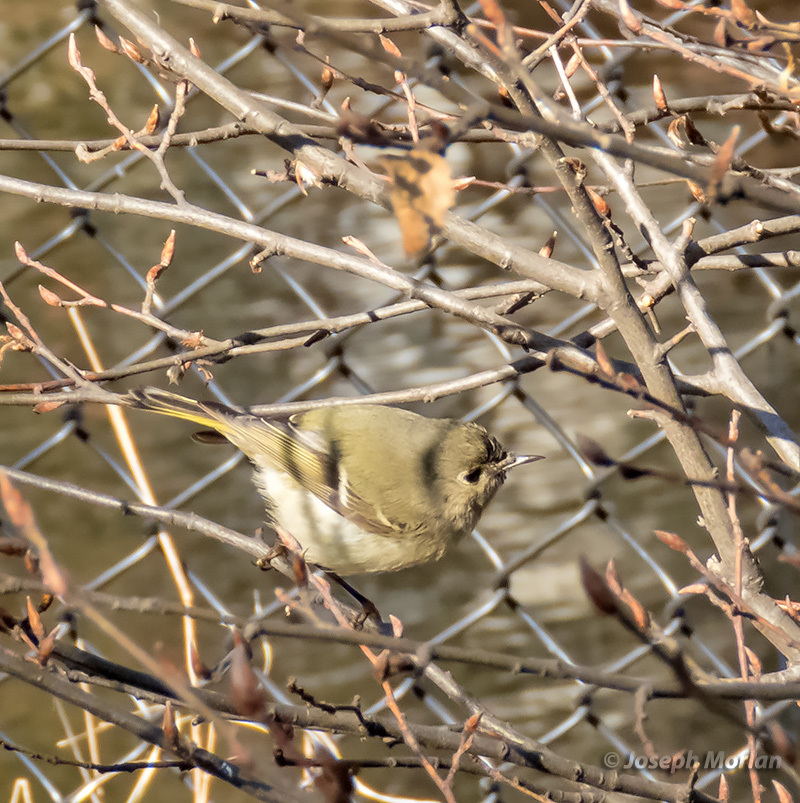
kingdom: Animalia
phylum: Chordata
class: Aves
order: Passeriformes
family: Regulidae
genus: Regulus
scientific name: Regulus calendula
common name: Ruby-crowned kinglet
